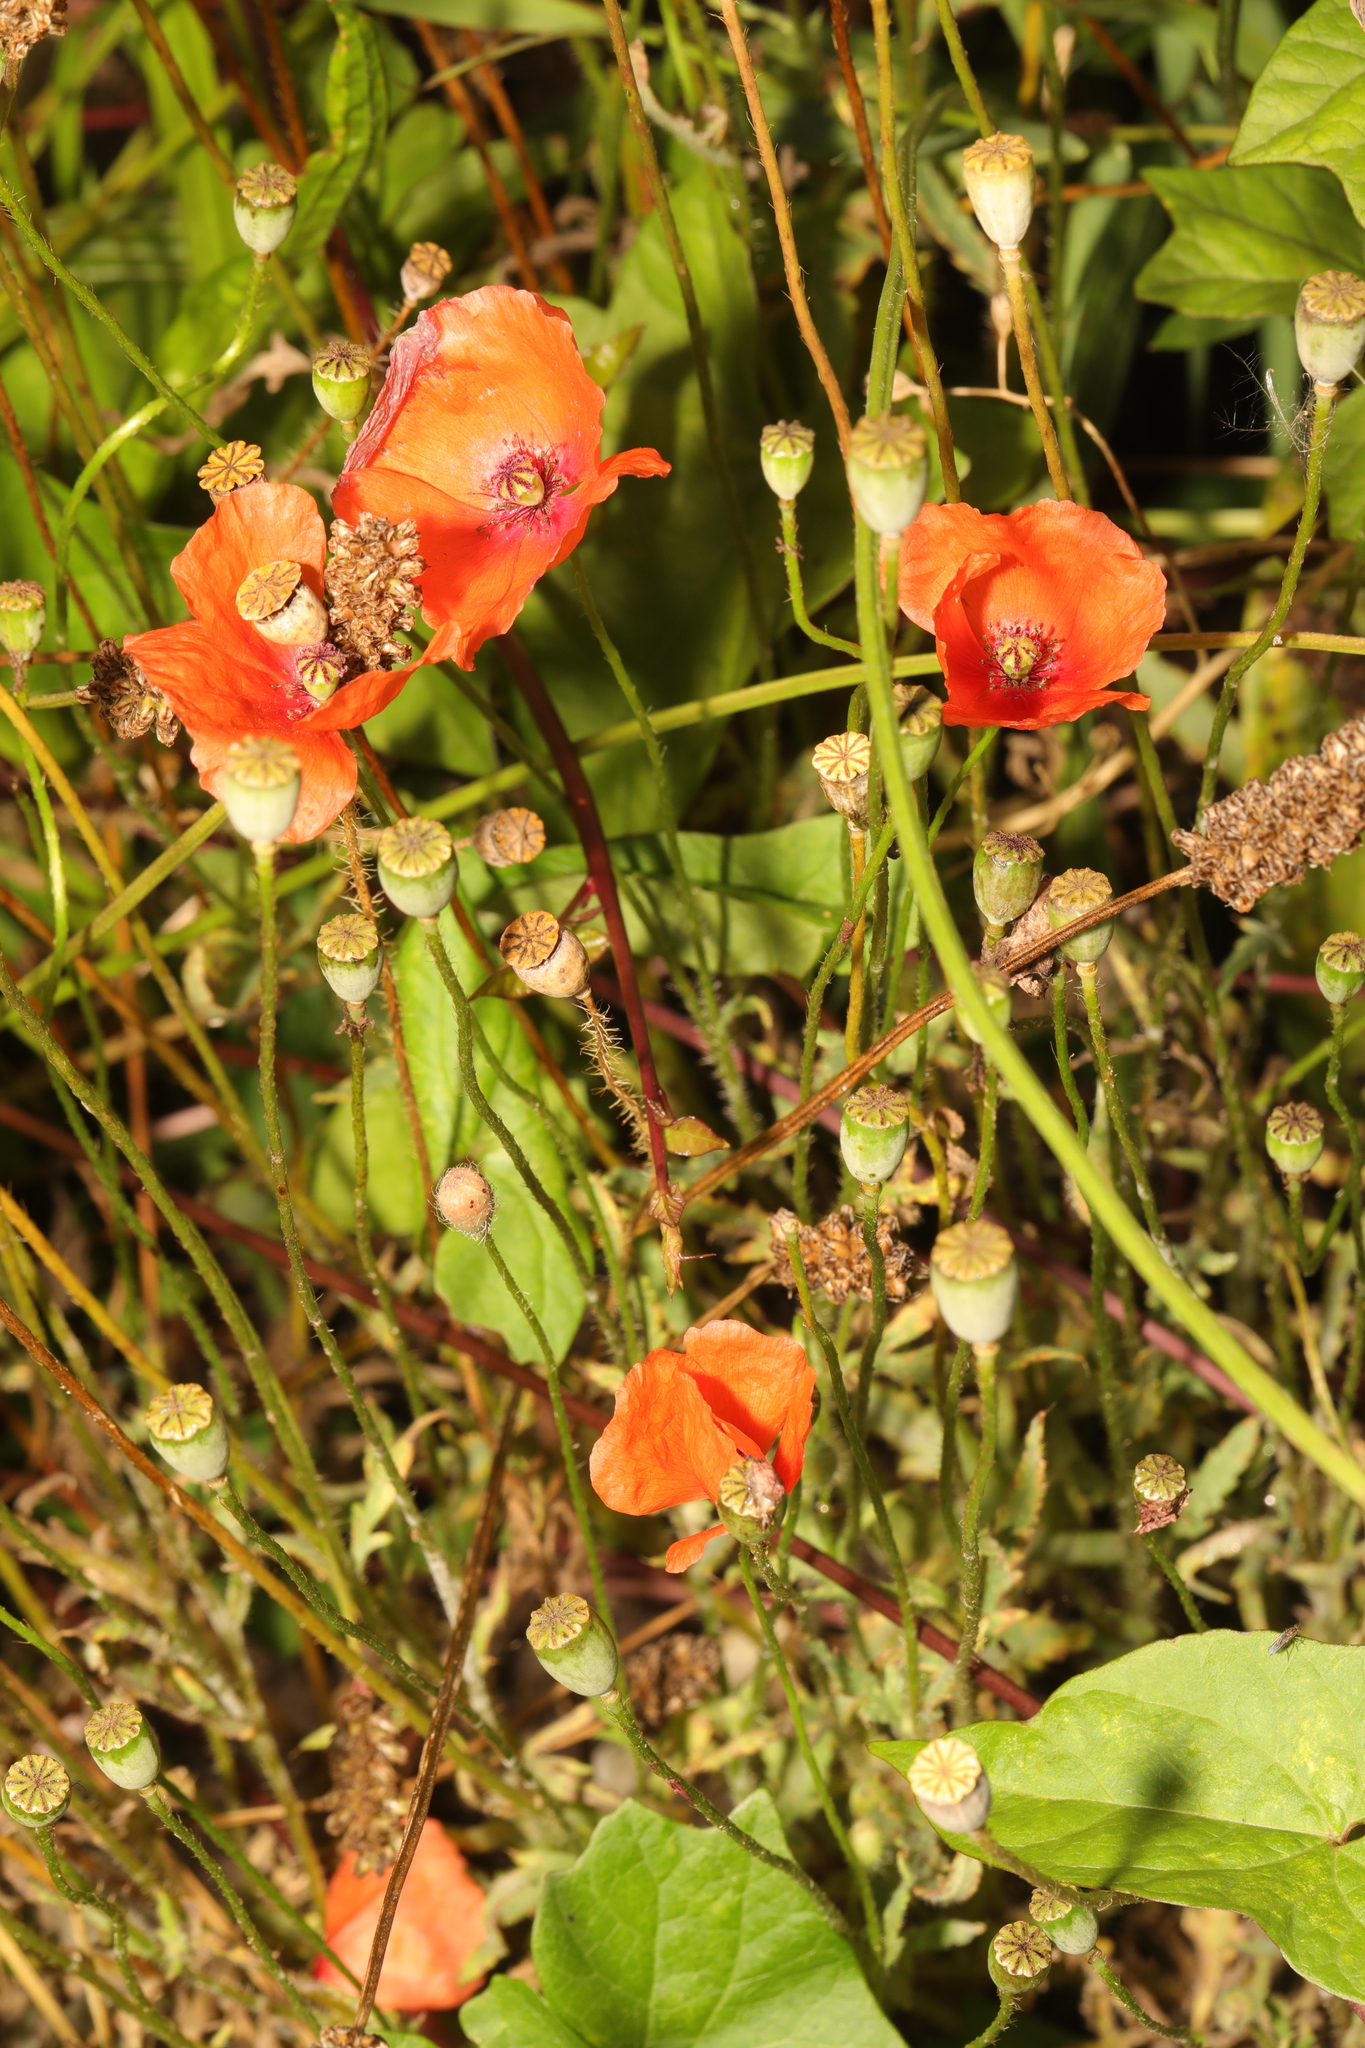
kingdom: Plantae
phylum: Tracheophyta
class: Magnoliopsida
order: Ranunculales
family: Papaveraceae
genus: Papaver
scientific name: Papaver rhoeas
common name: Corn poppy
